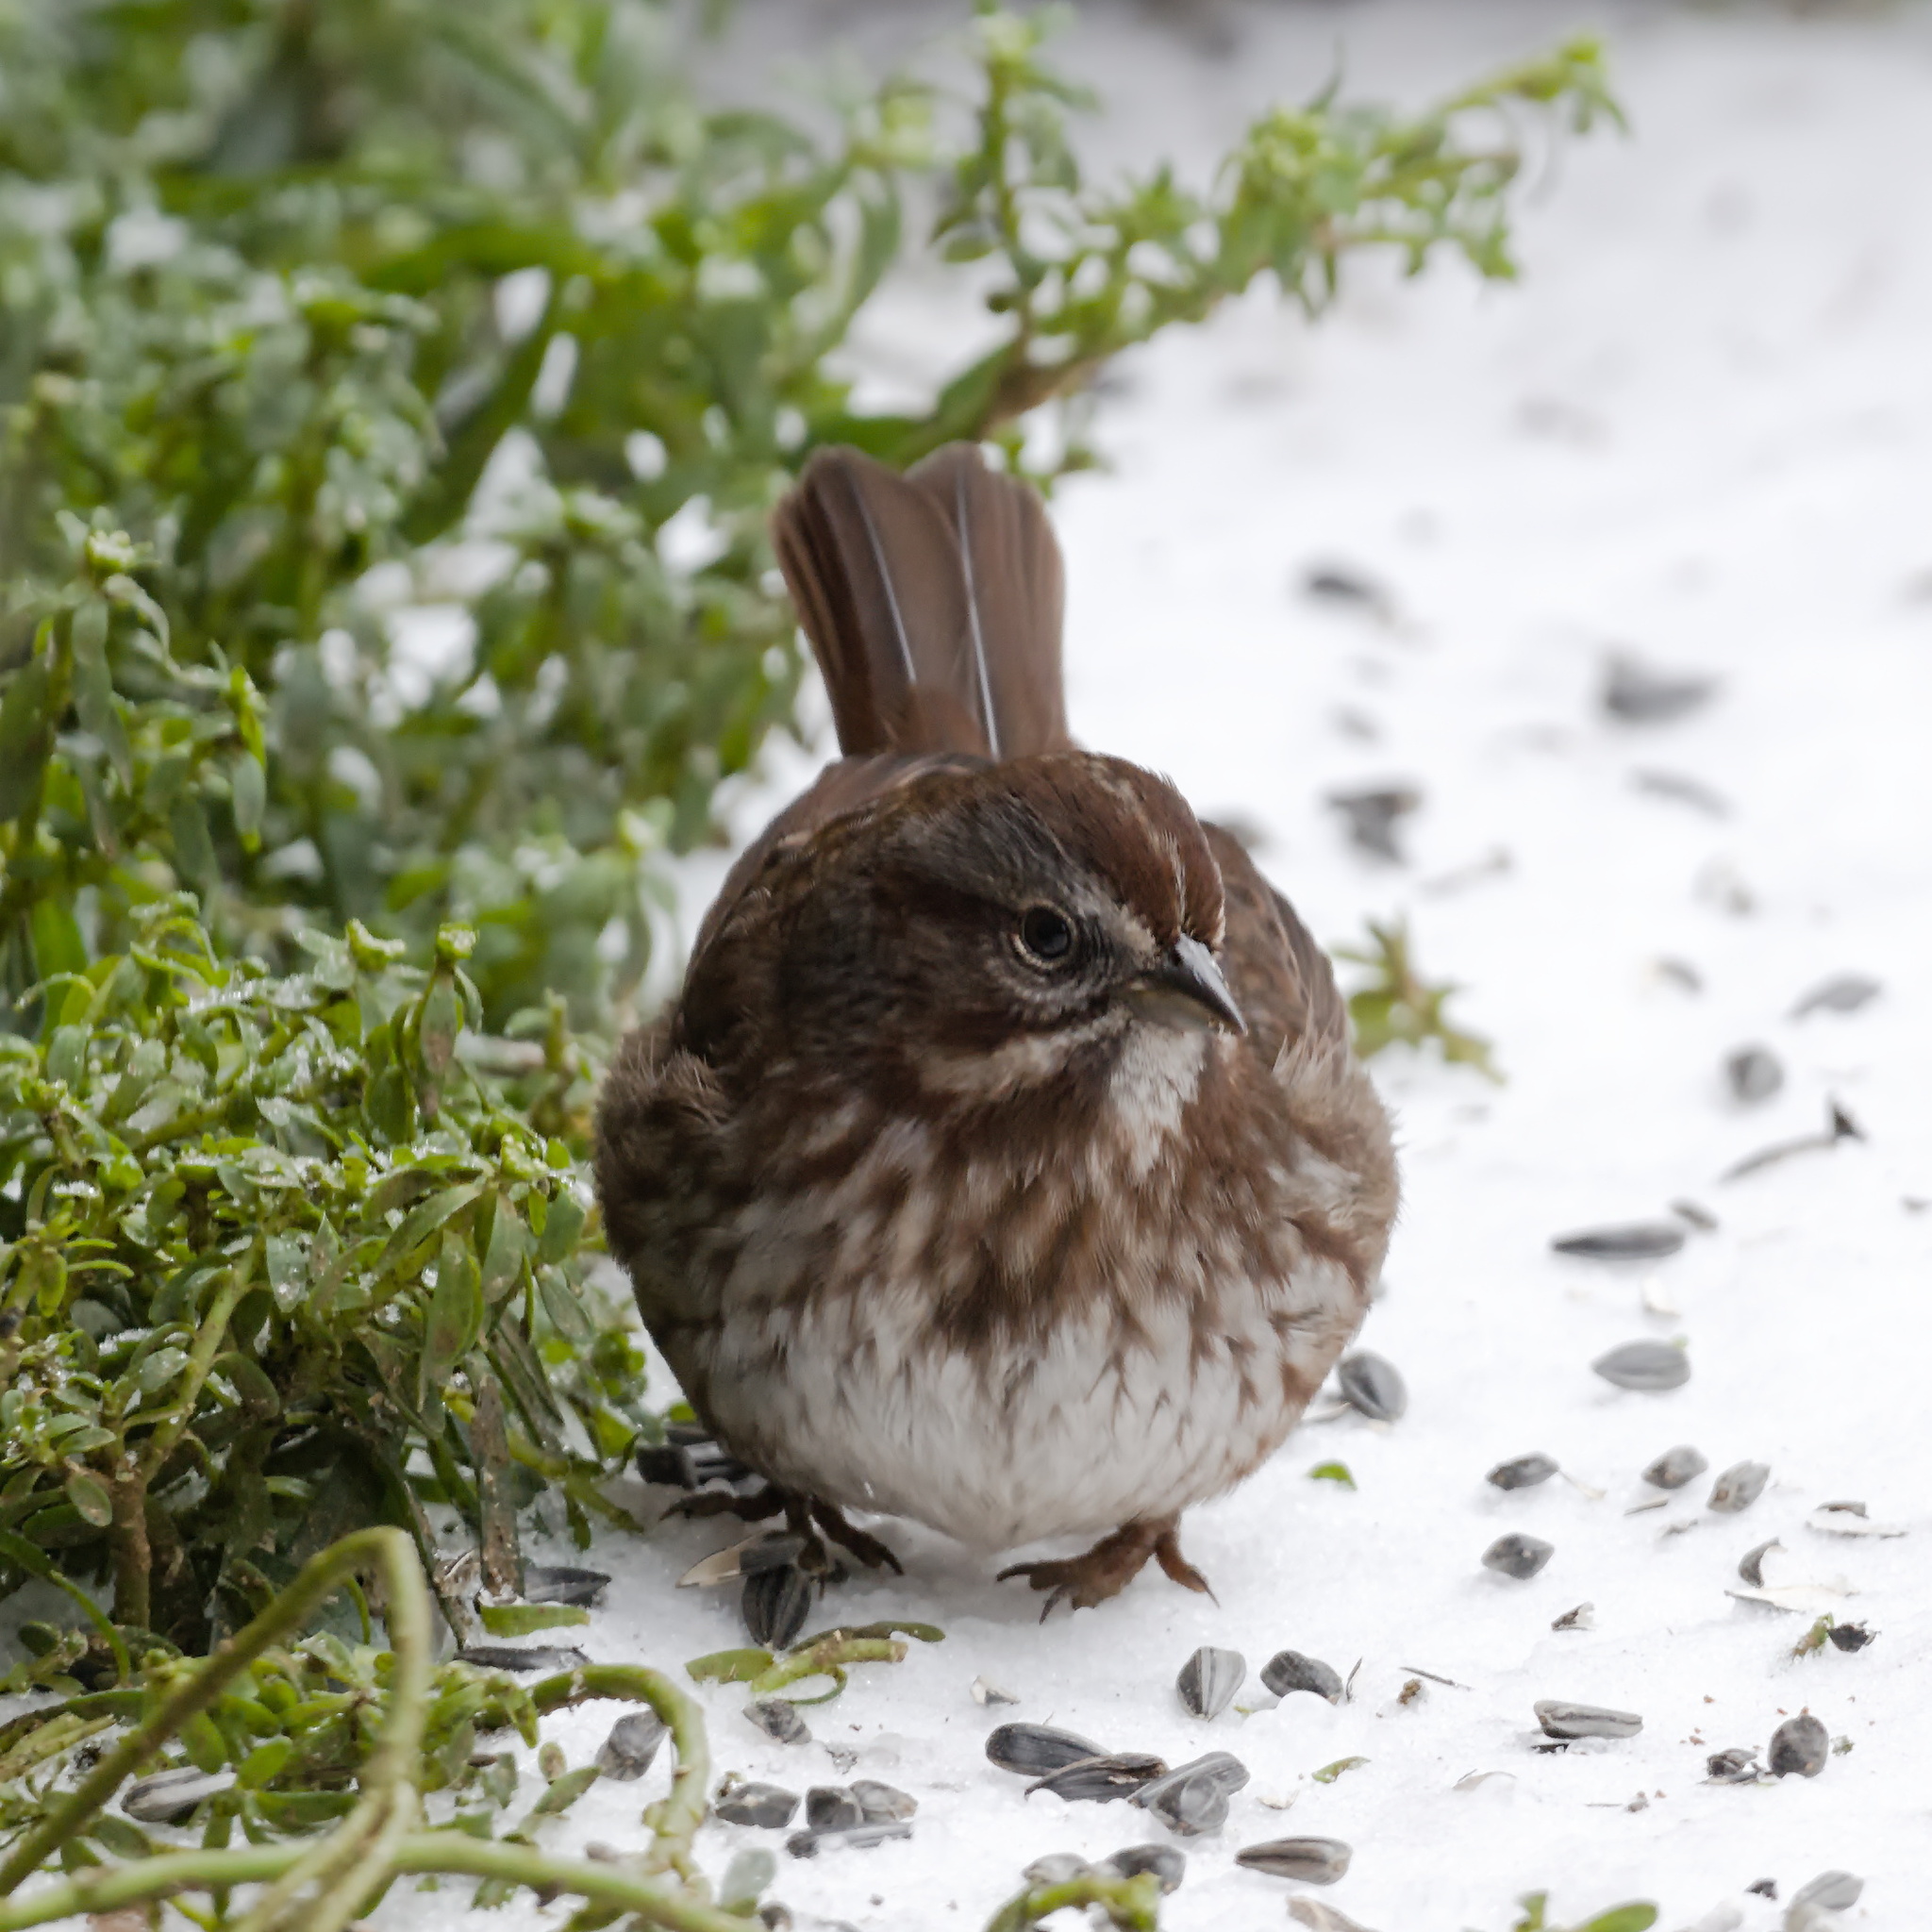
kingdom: Animalia
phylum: Chordata
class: Aves
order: Passeriformes
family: Passerellidae
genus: Melospiza
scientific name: Melospiza melodia
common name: Song sparrow
